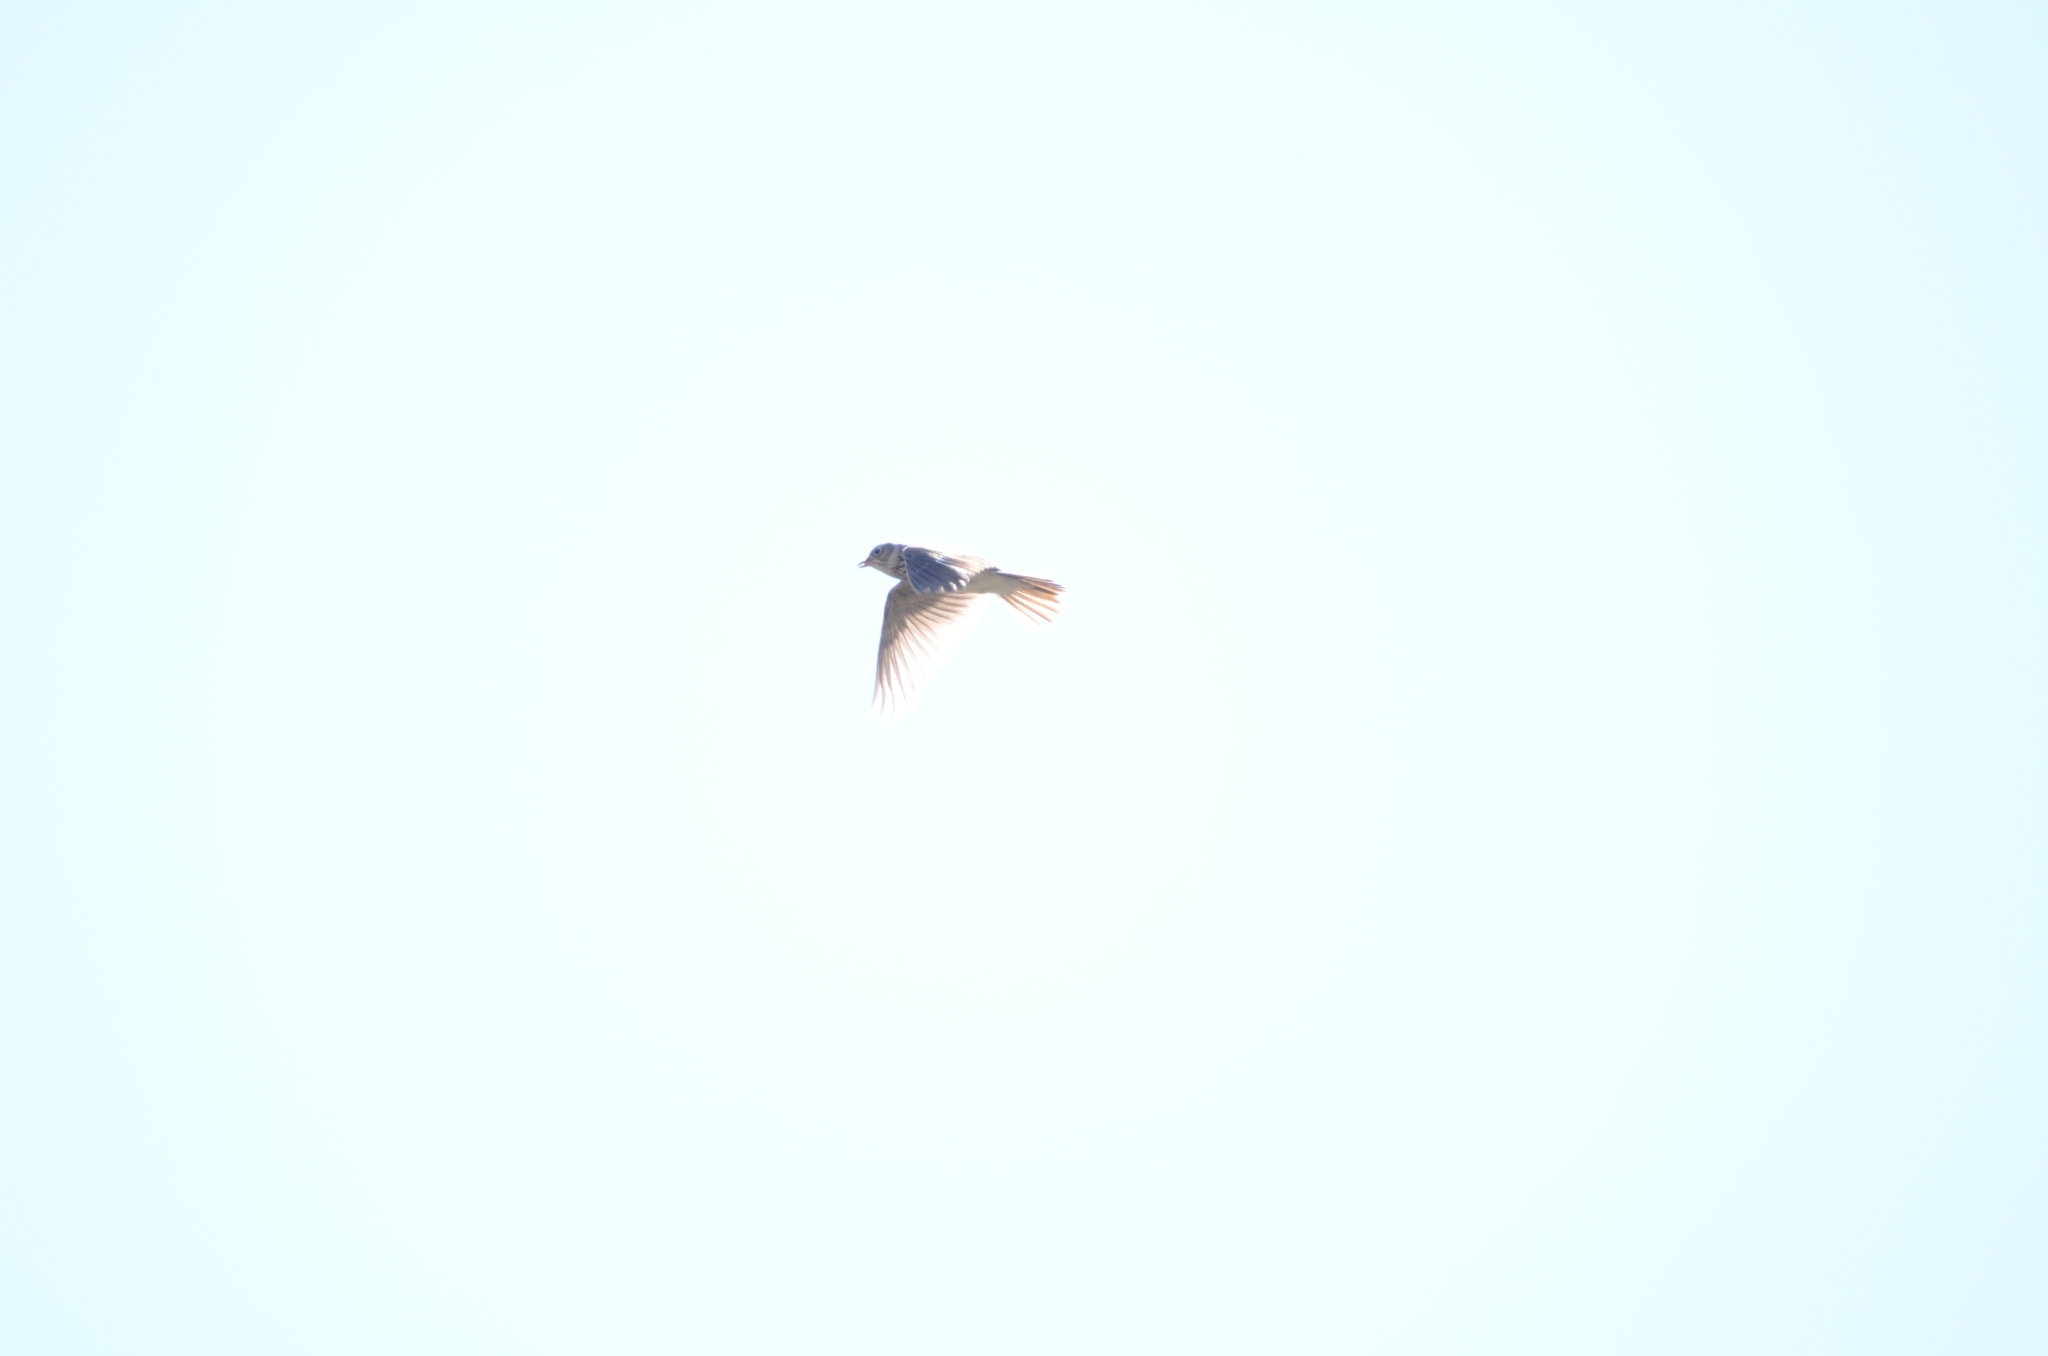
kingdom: Animalia
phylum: Chordata
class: Aves
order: Passeriformes
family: Alaudidae
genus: Alauda
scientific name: Alauda arvensis
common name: Eurasian skylark
